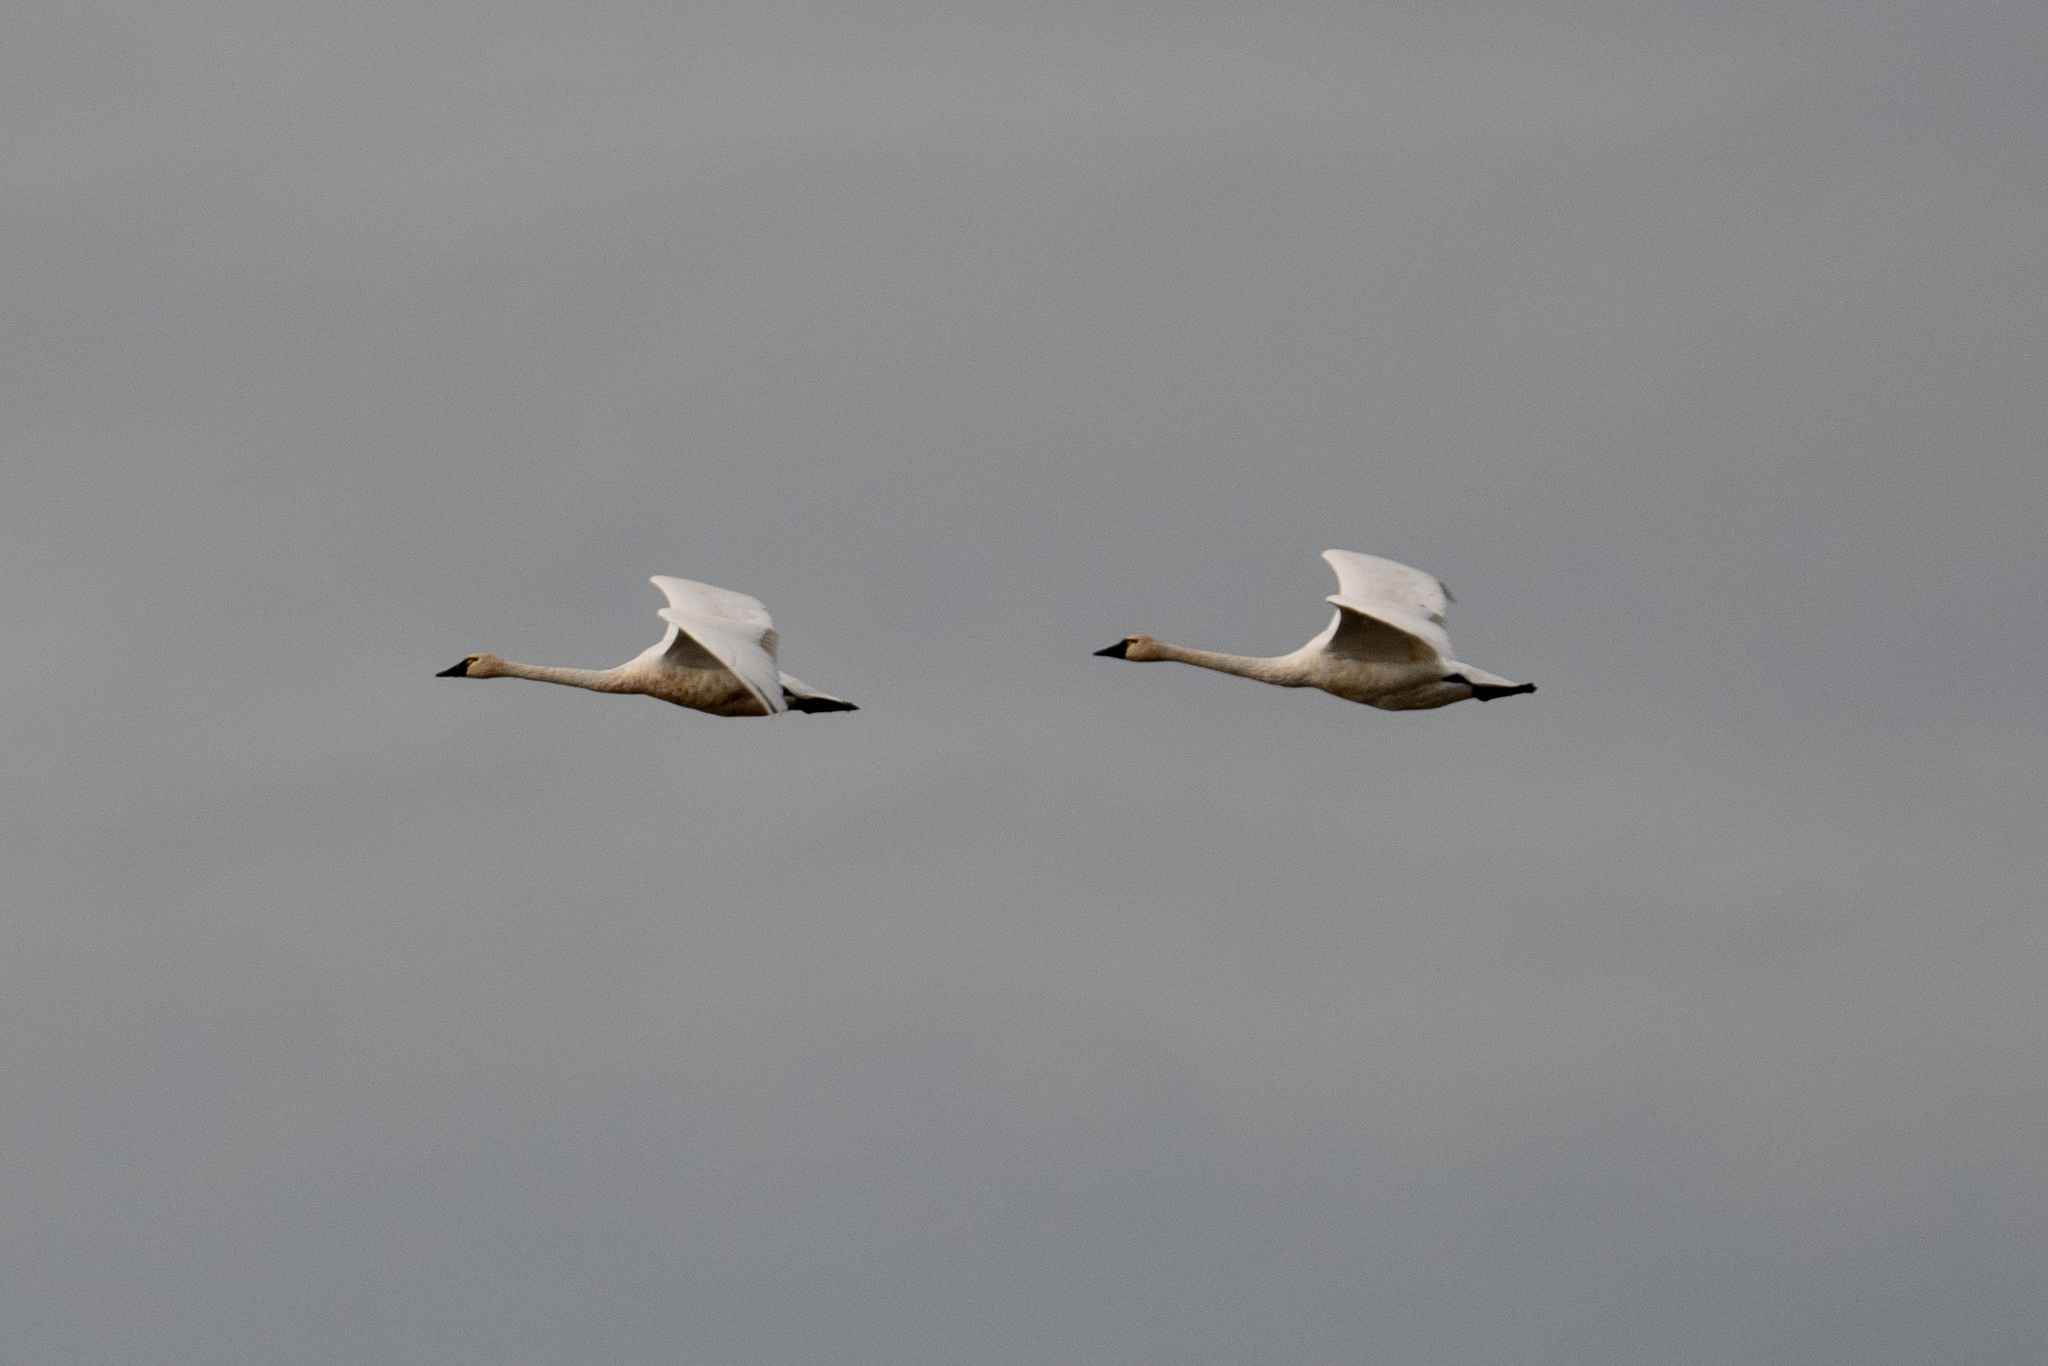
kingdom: Animalia
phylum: Chordata
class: Aves
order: Anseriformes
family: Anatidae
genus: Cygnus
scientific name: Cygnus columbianus
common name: Tundra swan
